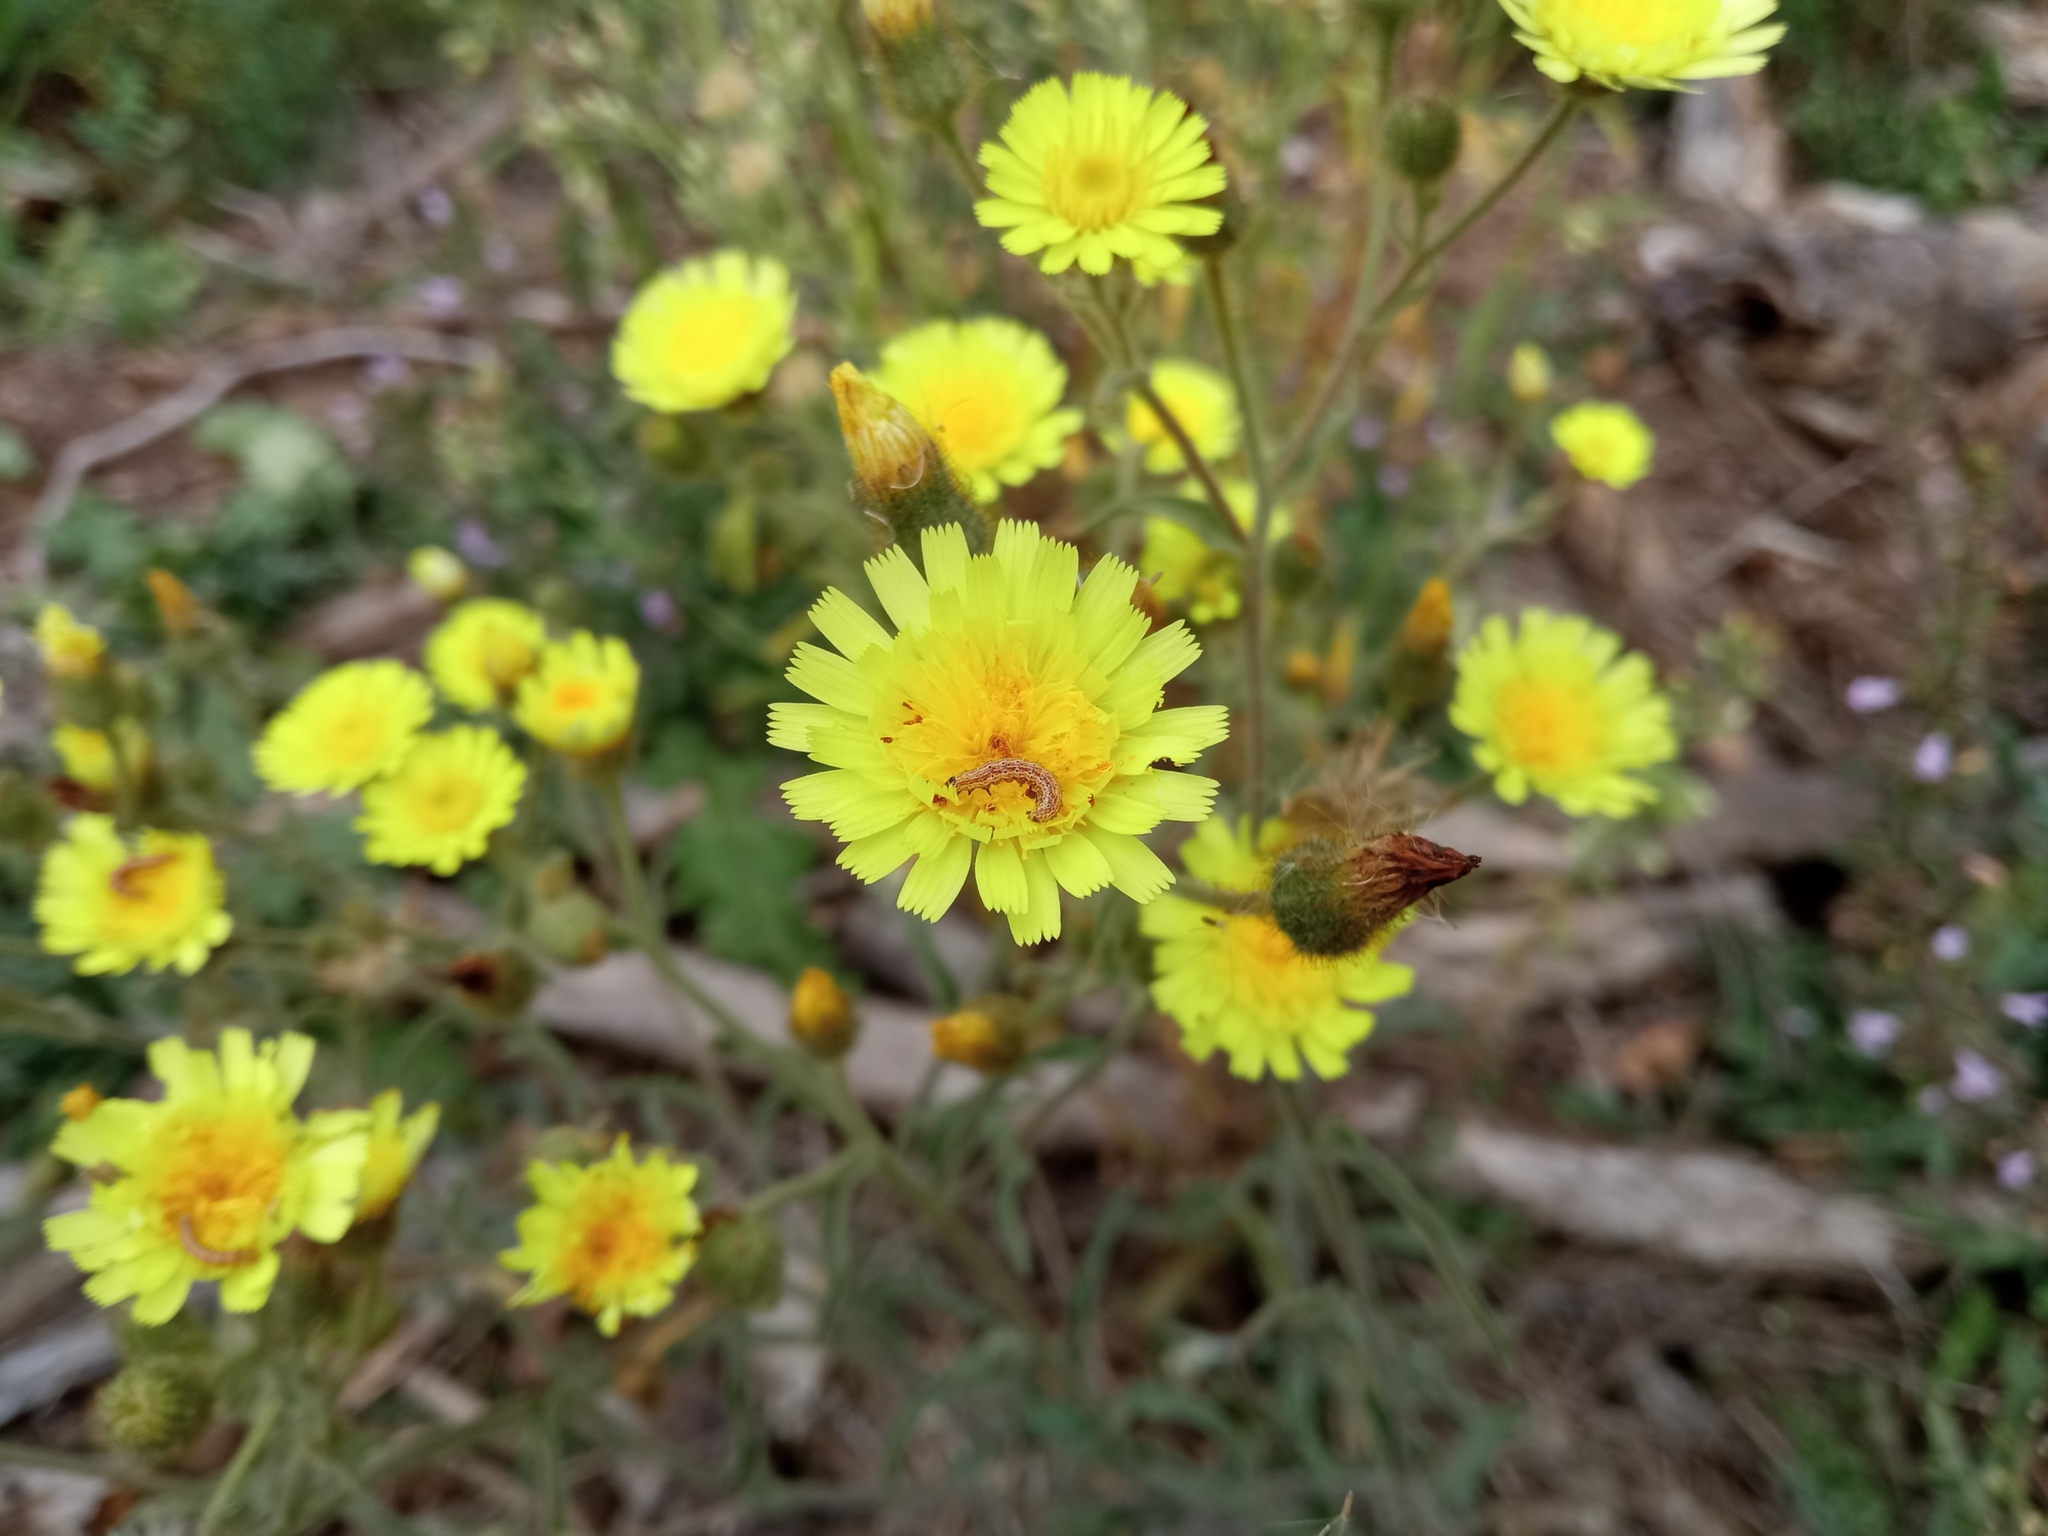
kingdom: Plantae
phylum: Tracheophyta
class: Magnoliopsida
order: Asterales
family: Asteraceae
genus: Andryala
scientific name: Andryala integrifolia
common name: Common andryala
